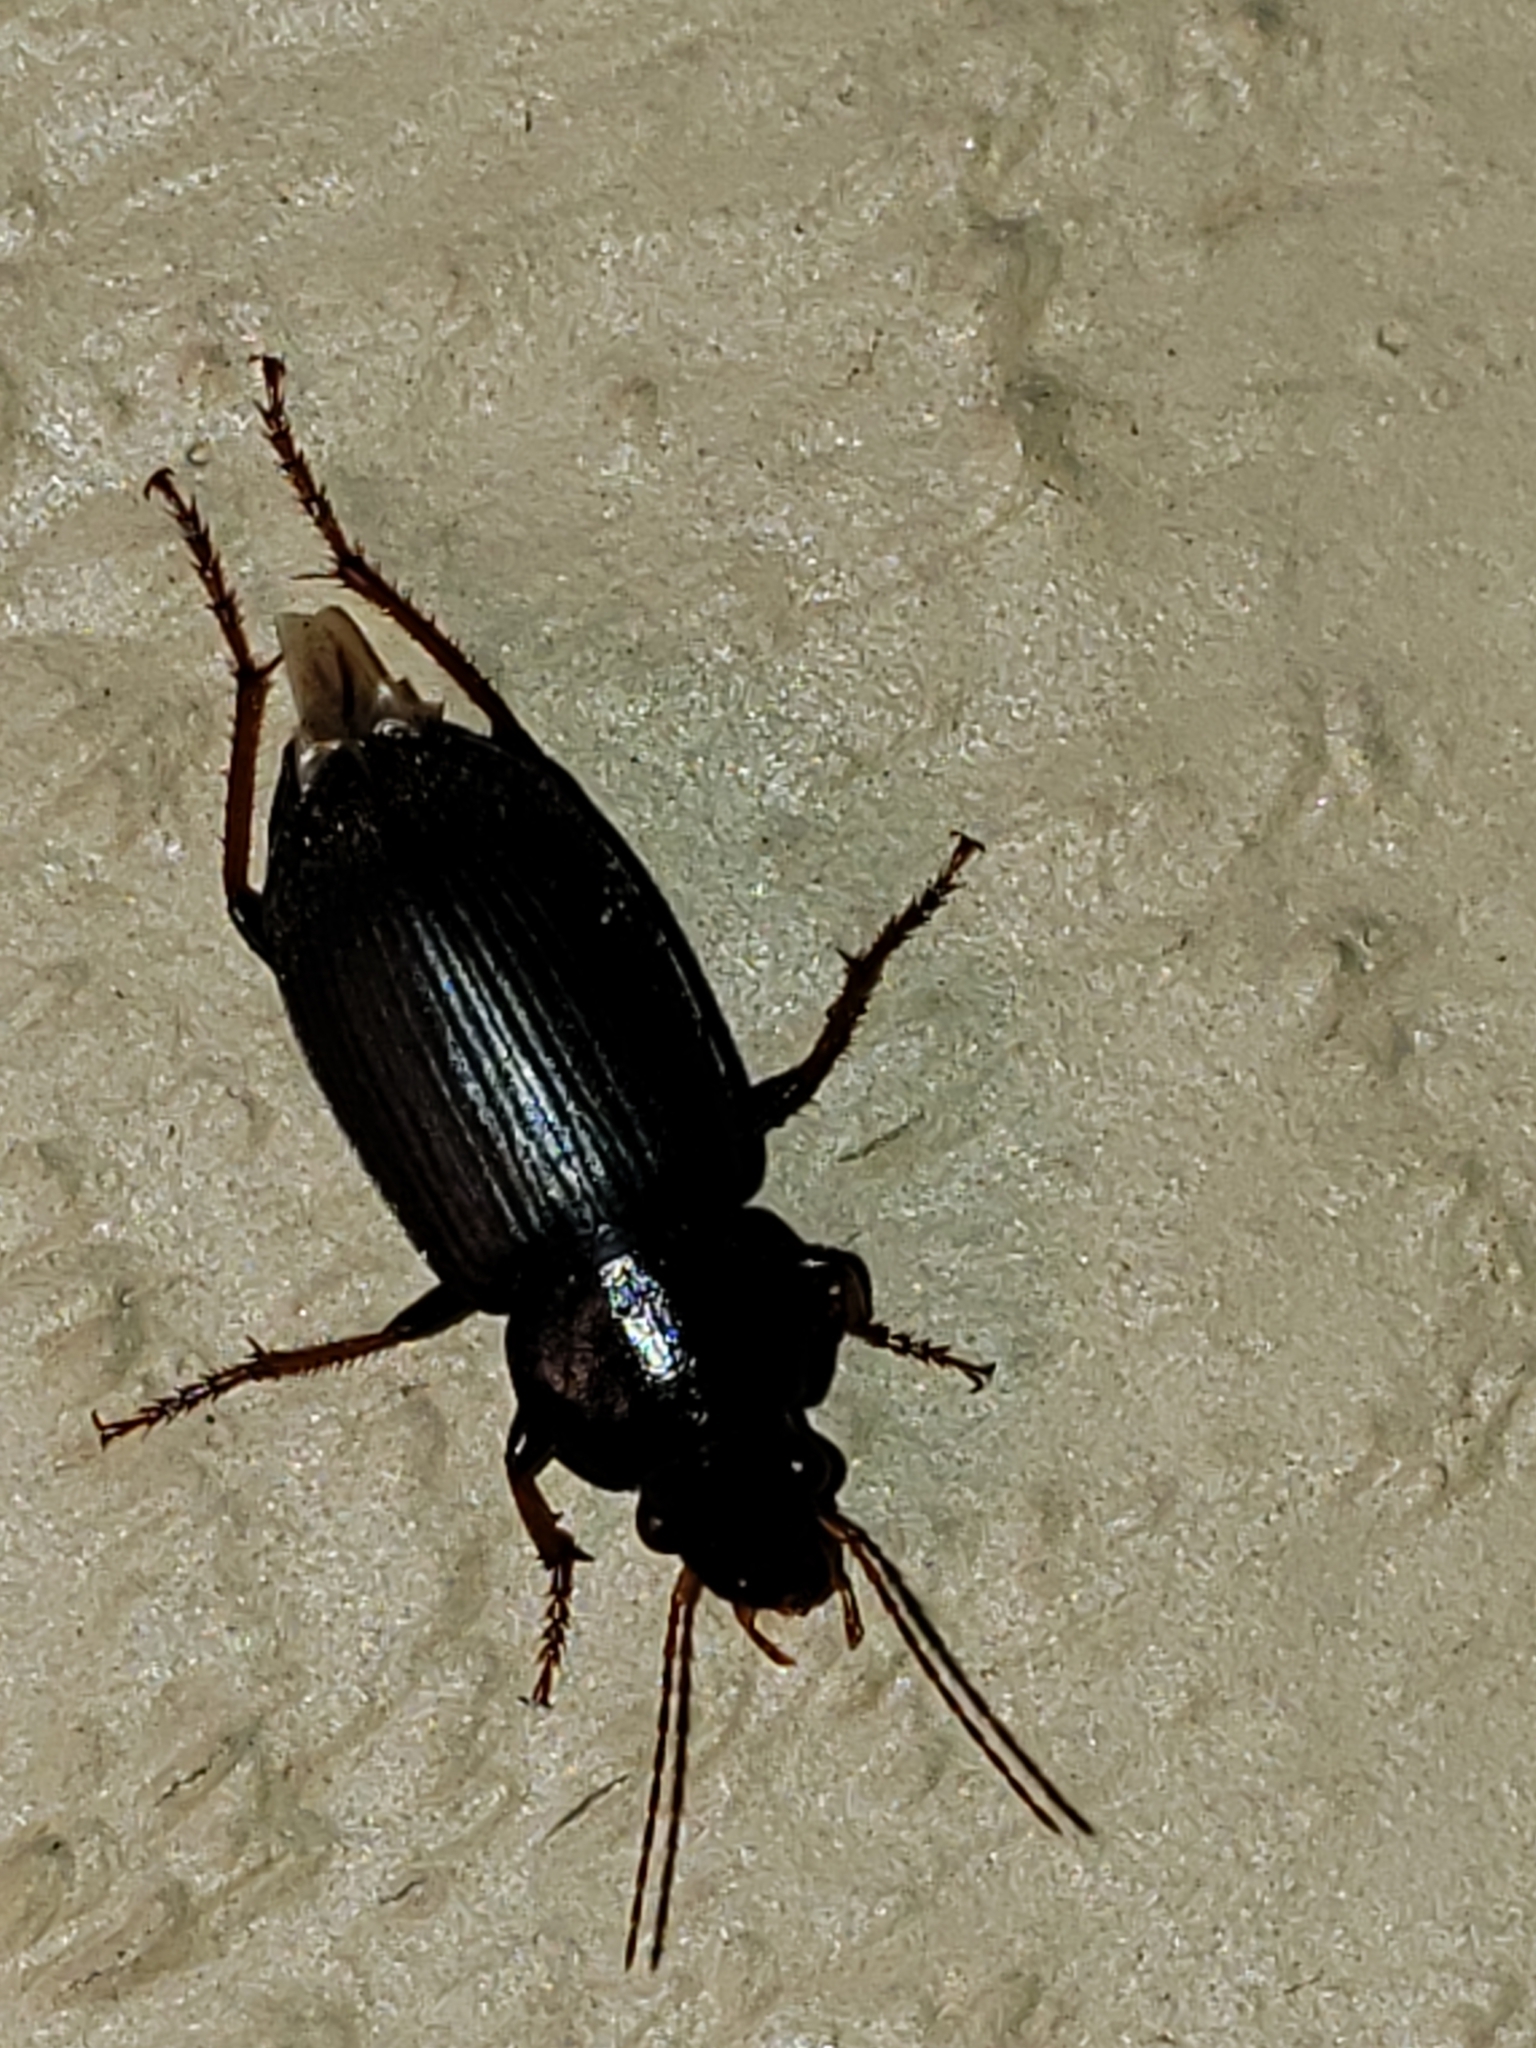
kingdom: Animalia
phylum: Arthropoda
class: Insecta
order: Coleoptera
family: Carabidae
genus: Amphasia
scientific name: Amphasia sericea
